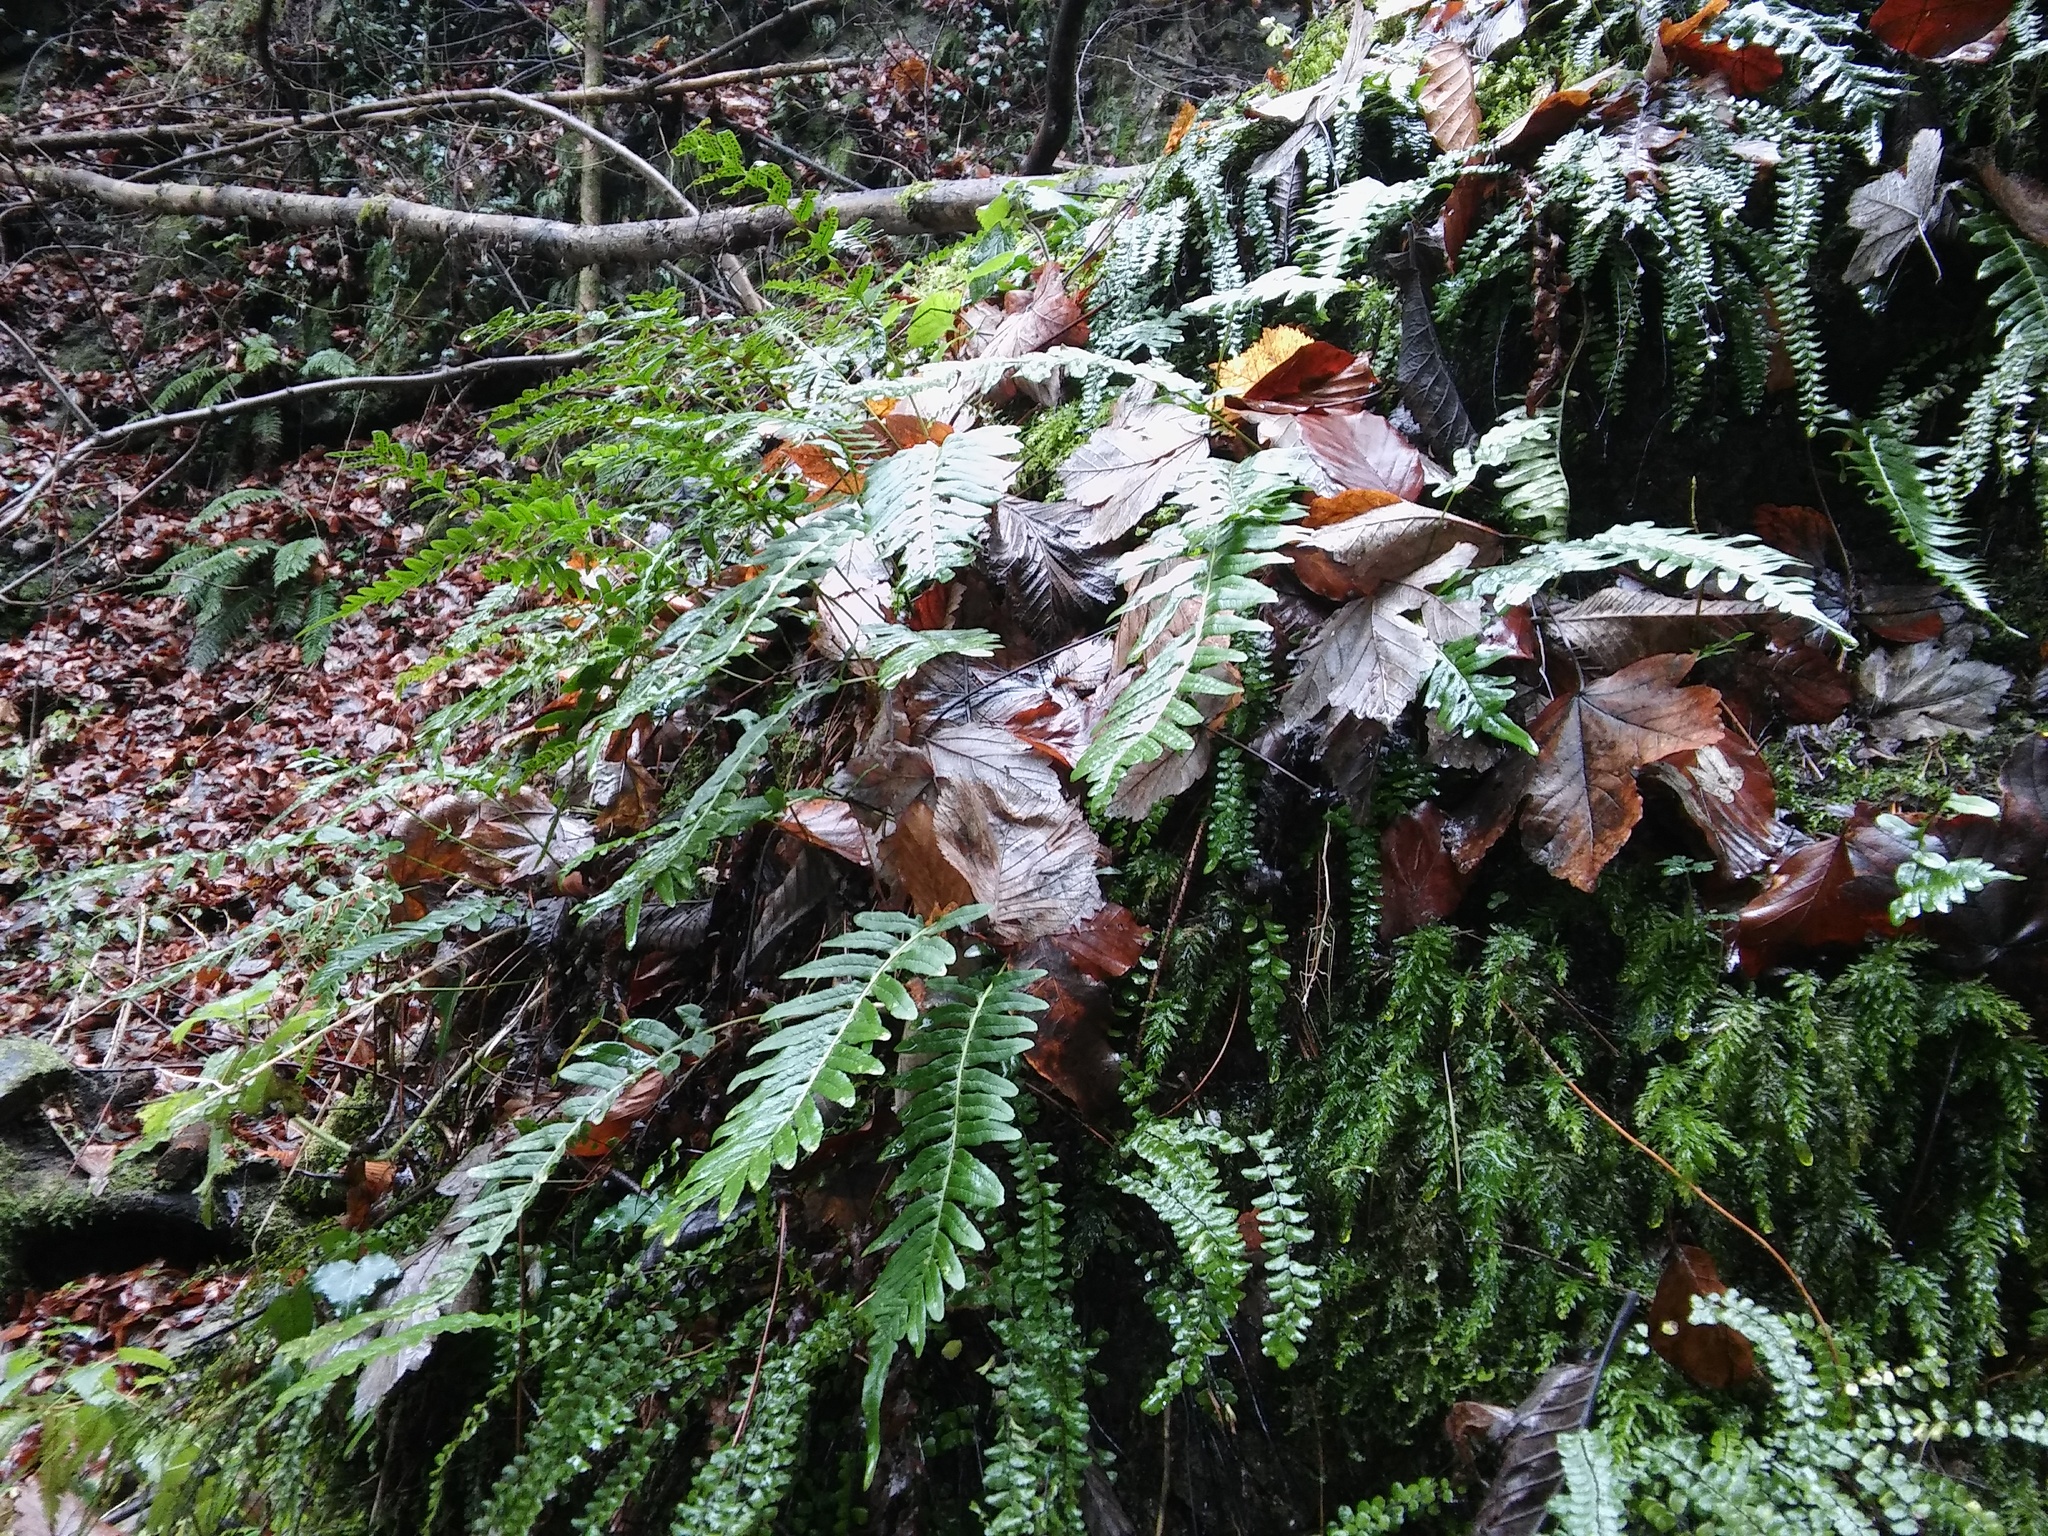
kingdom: Plantae
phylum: Tracheophyta
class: Polypodiopsida
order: Polypodiales
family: Polypodiaceae
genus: Polypodium
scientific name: Polypodium vulgare
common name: Common polypody
